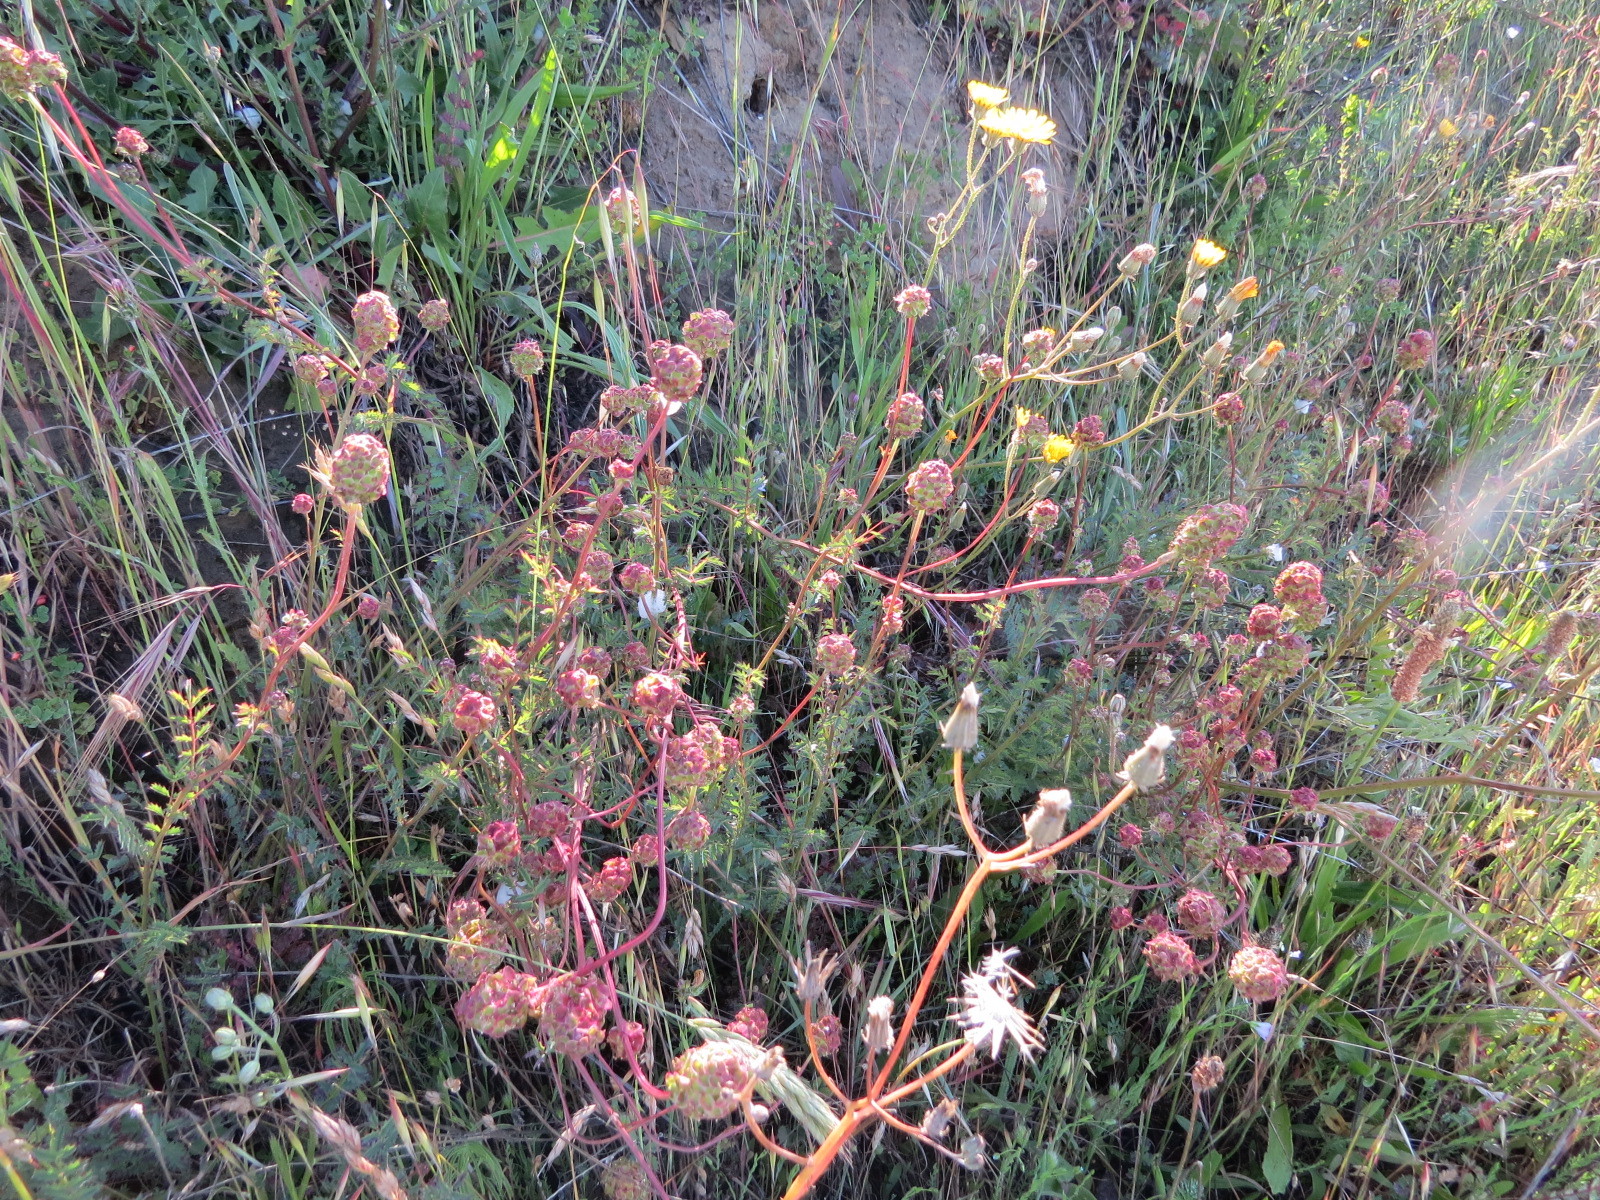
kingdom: Plantae
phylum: Tracheophyta
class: Magnoliopsida
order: Rosales
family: Rosaceae
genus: Poterium
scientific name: Poterium sanguisorba
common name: Salad burnet
